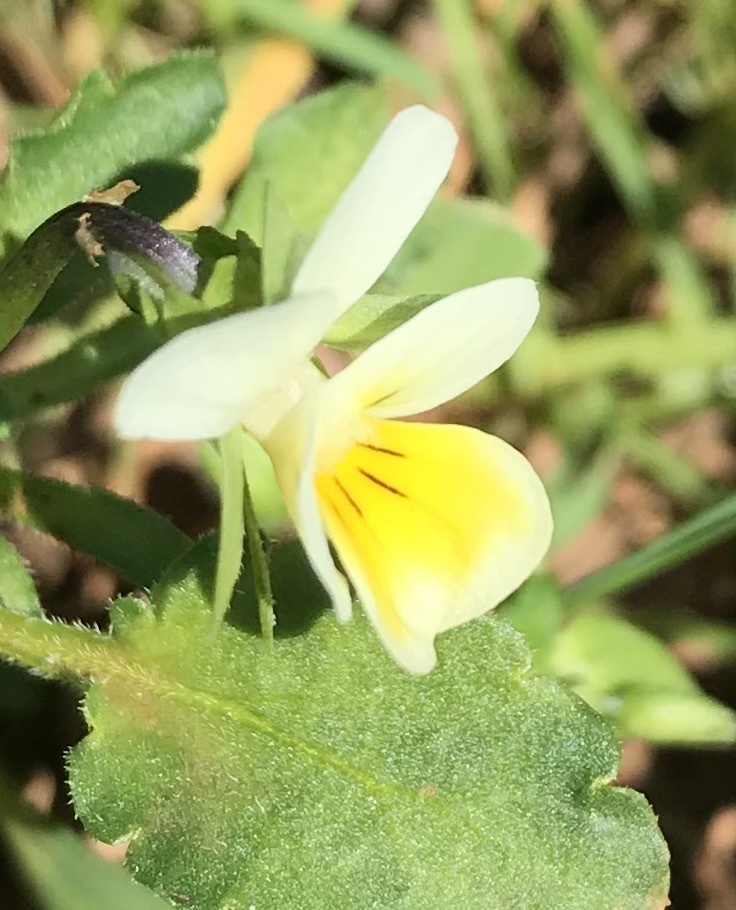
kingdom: Plantae
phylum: Tracheophyta
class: Magnoliopsida
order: Malpighiales
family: Violaceae
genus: Viola
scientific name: Viola arvensis
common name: Field pansy
